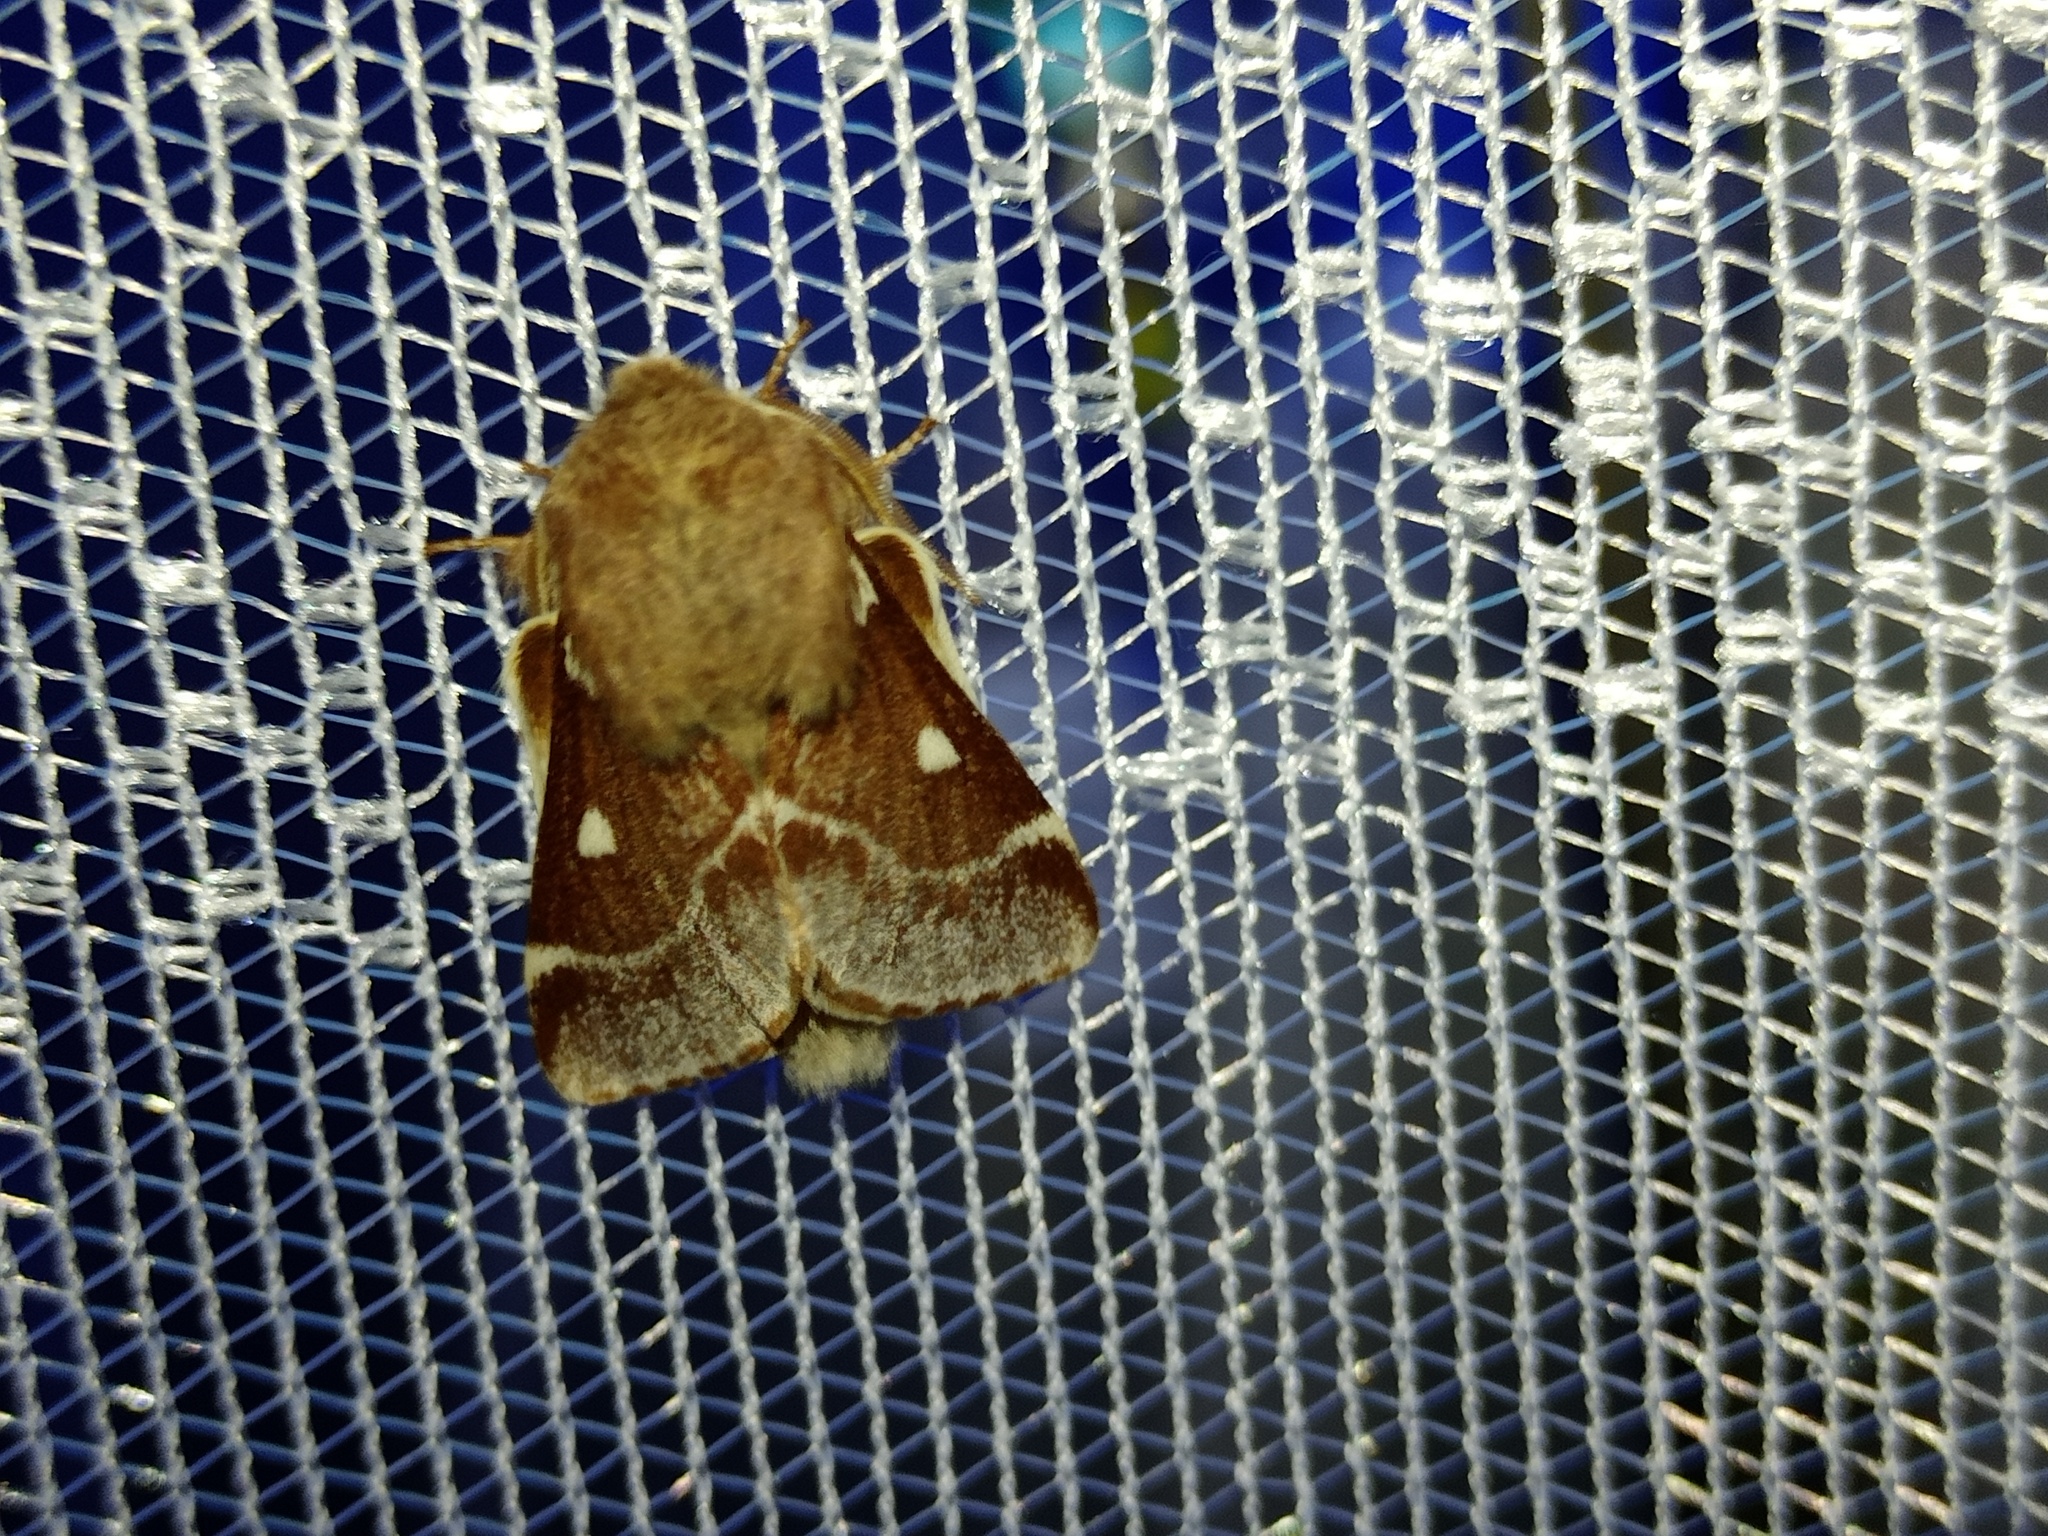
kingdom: Animalia
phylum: Arthropoda
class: Insecta
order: Lepidoptera
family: Lasiocampidae
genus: Eriogaster
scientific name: Eriogaster lanestris
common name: Small eggar
